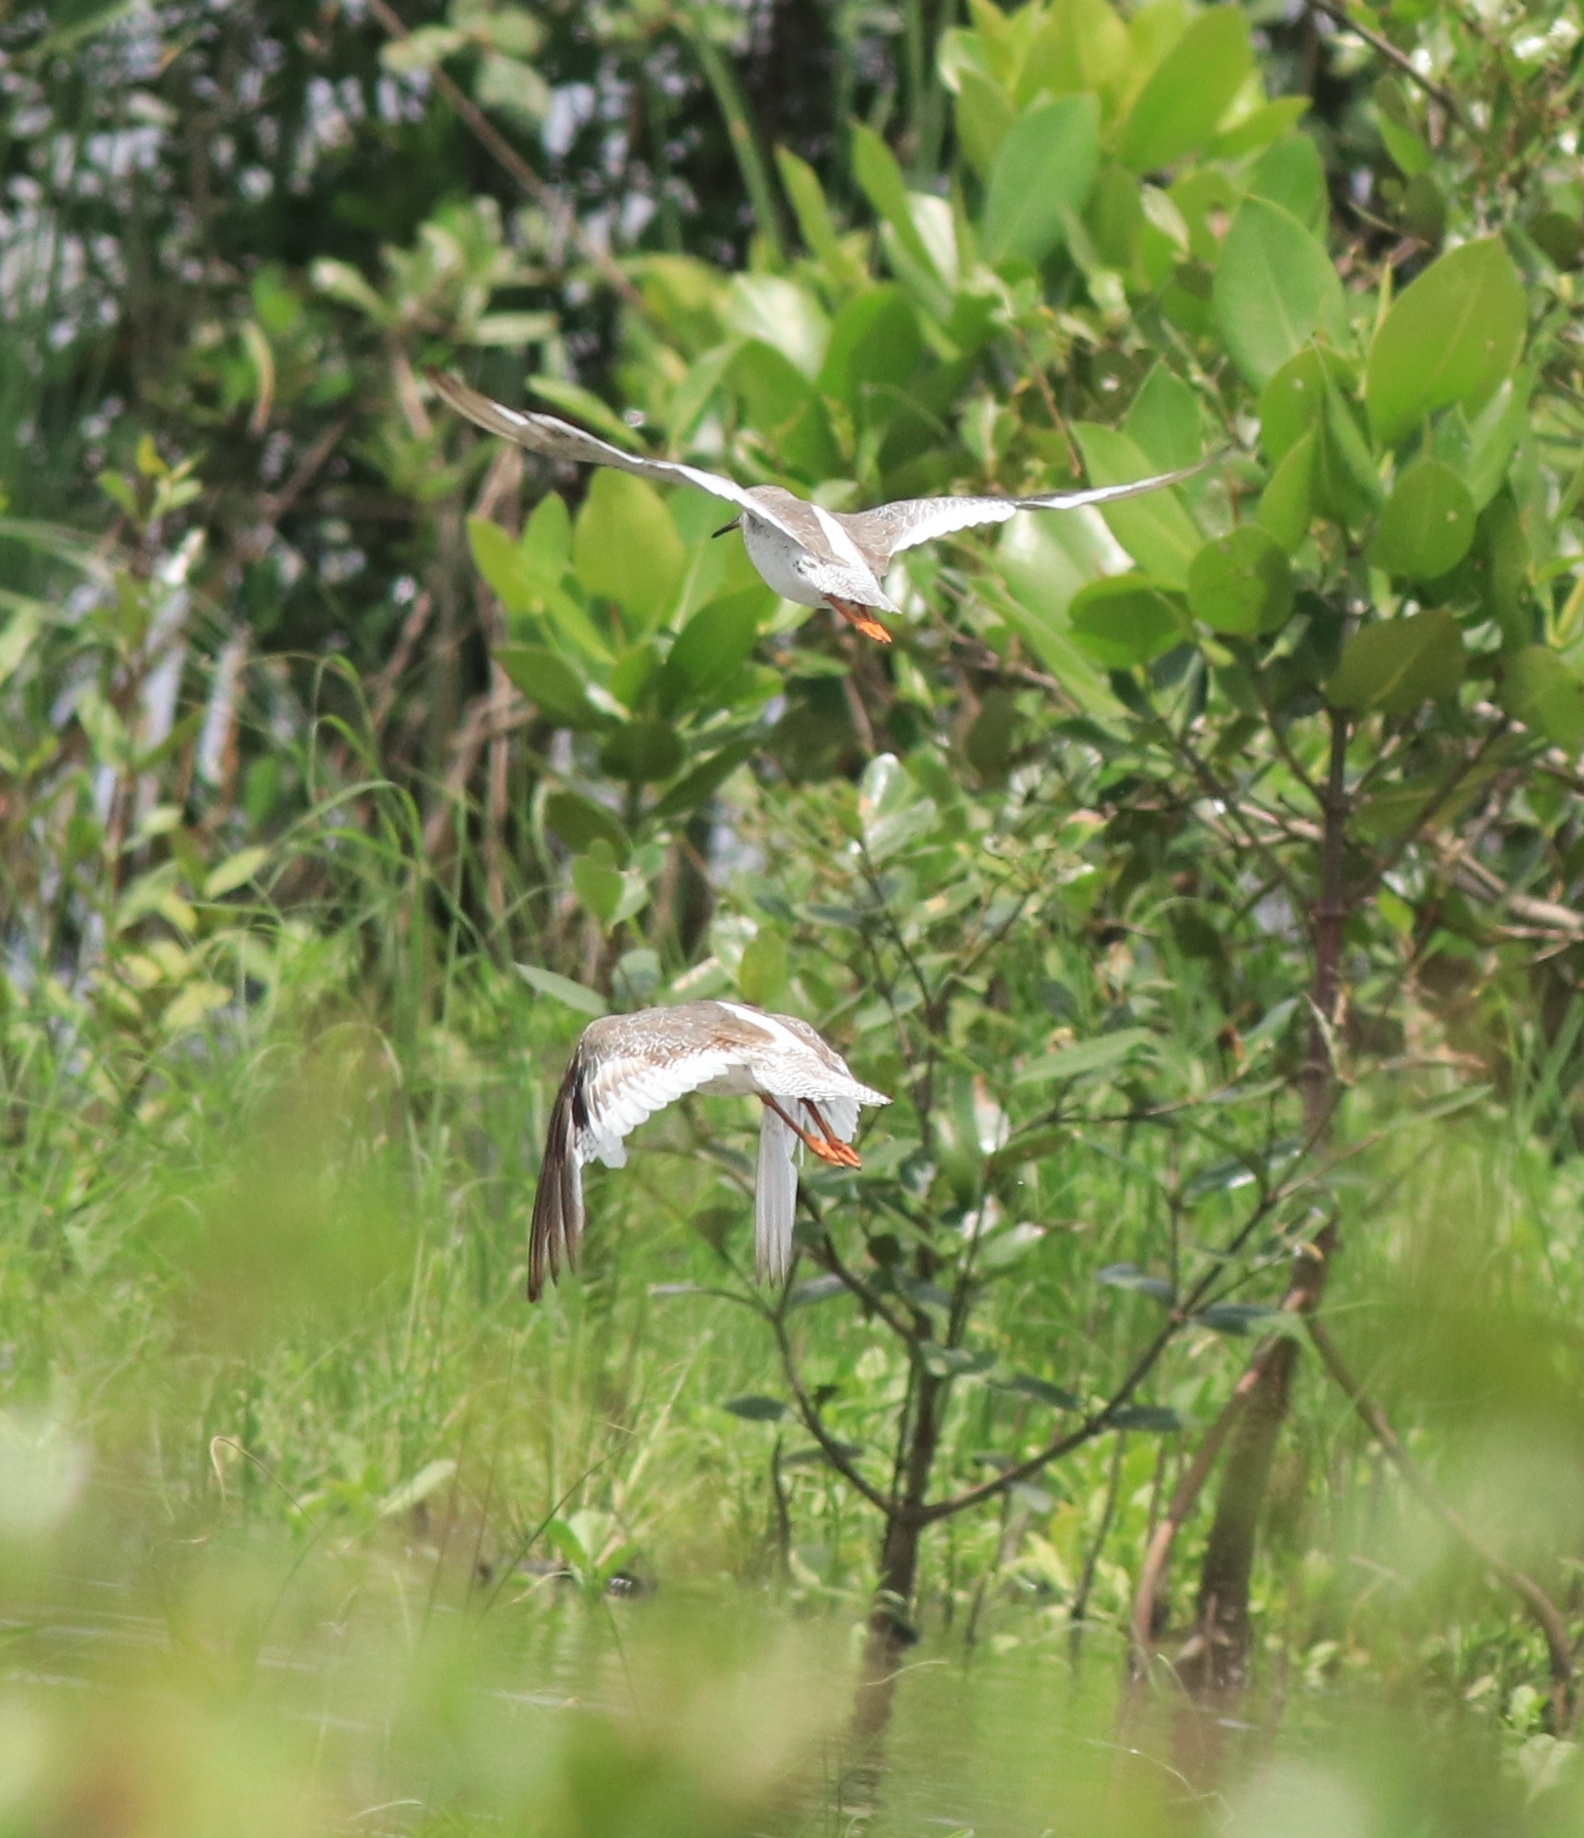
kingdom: Animalia
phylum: Chordata
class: Aves
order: Charadriiformes
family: Scolopacidae
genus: Tringa
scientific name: Tringa totanus
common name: Common redshank
